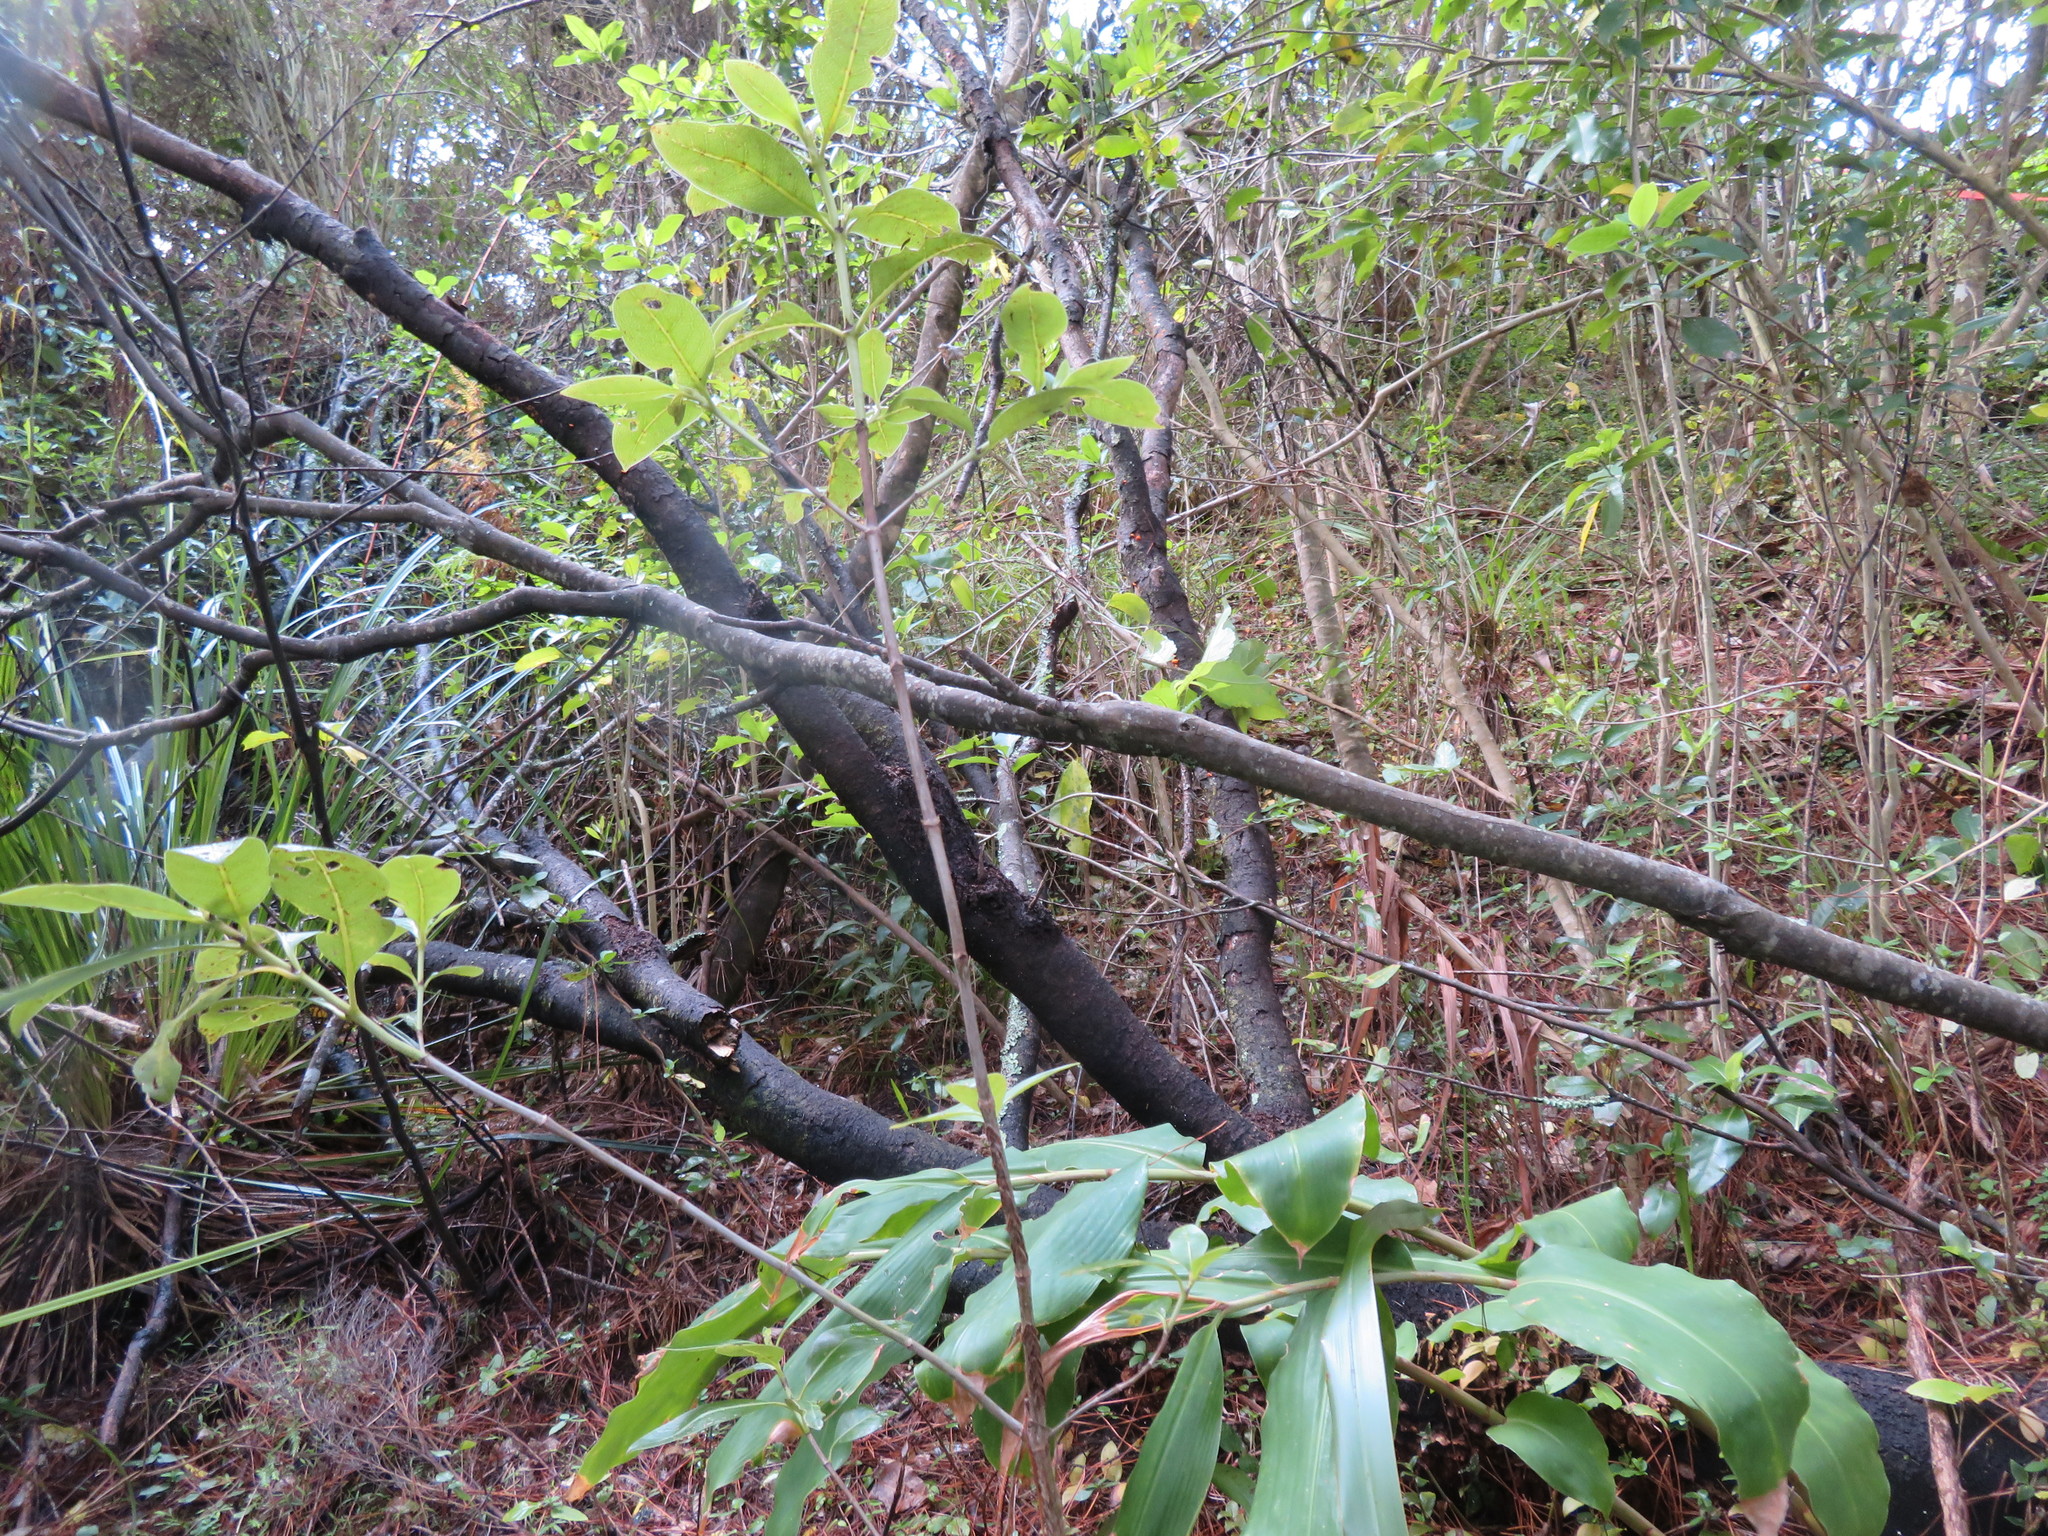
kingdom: Plantae
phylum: Tracheophyta
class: Liliopsida
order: Zingiberales
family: Zingiberaceae
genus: Hedychium
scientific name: Hedychium gardnerianum
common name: Himalayan ginger
